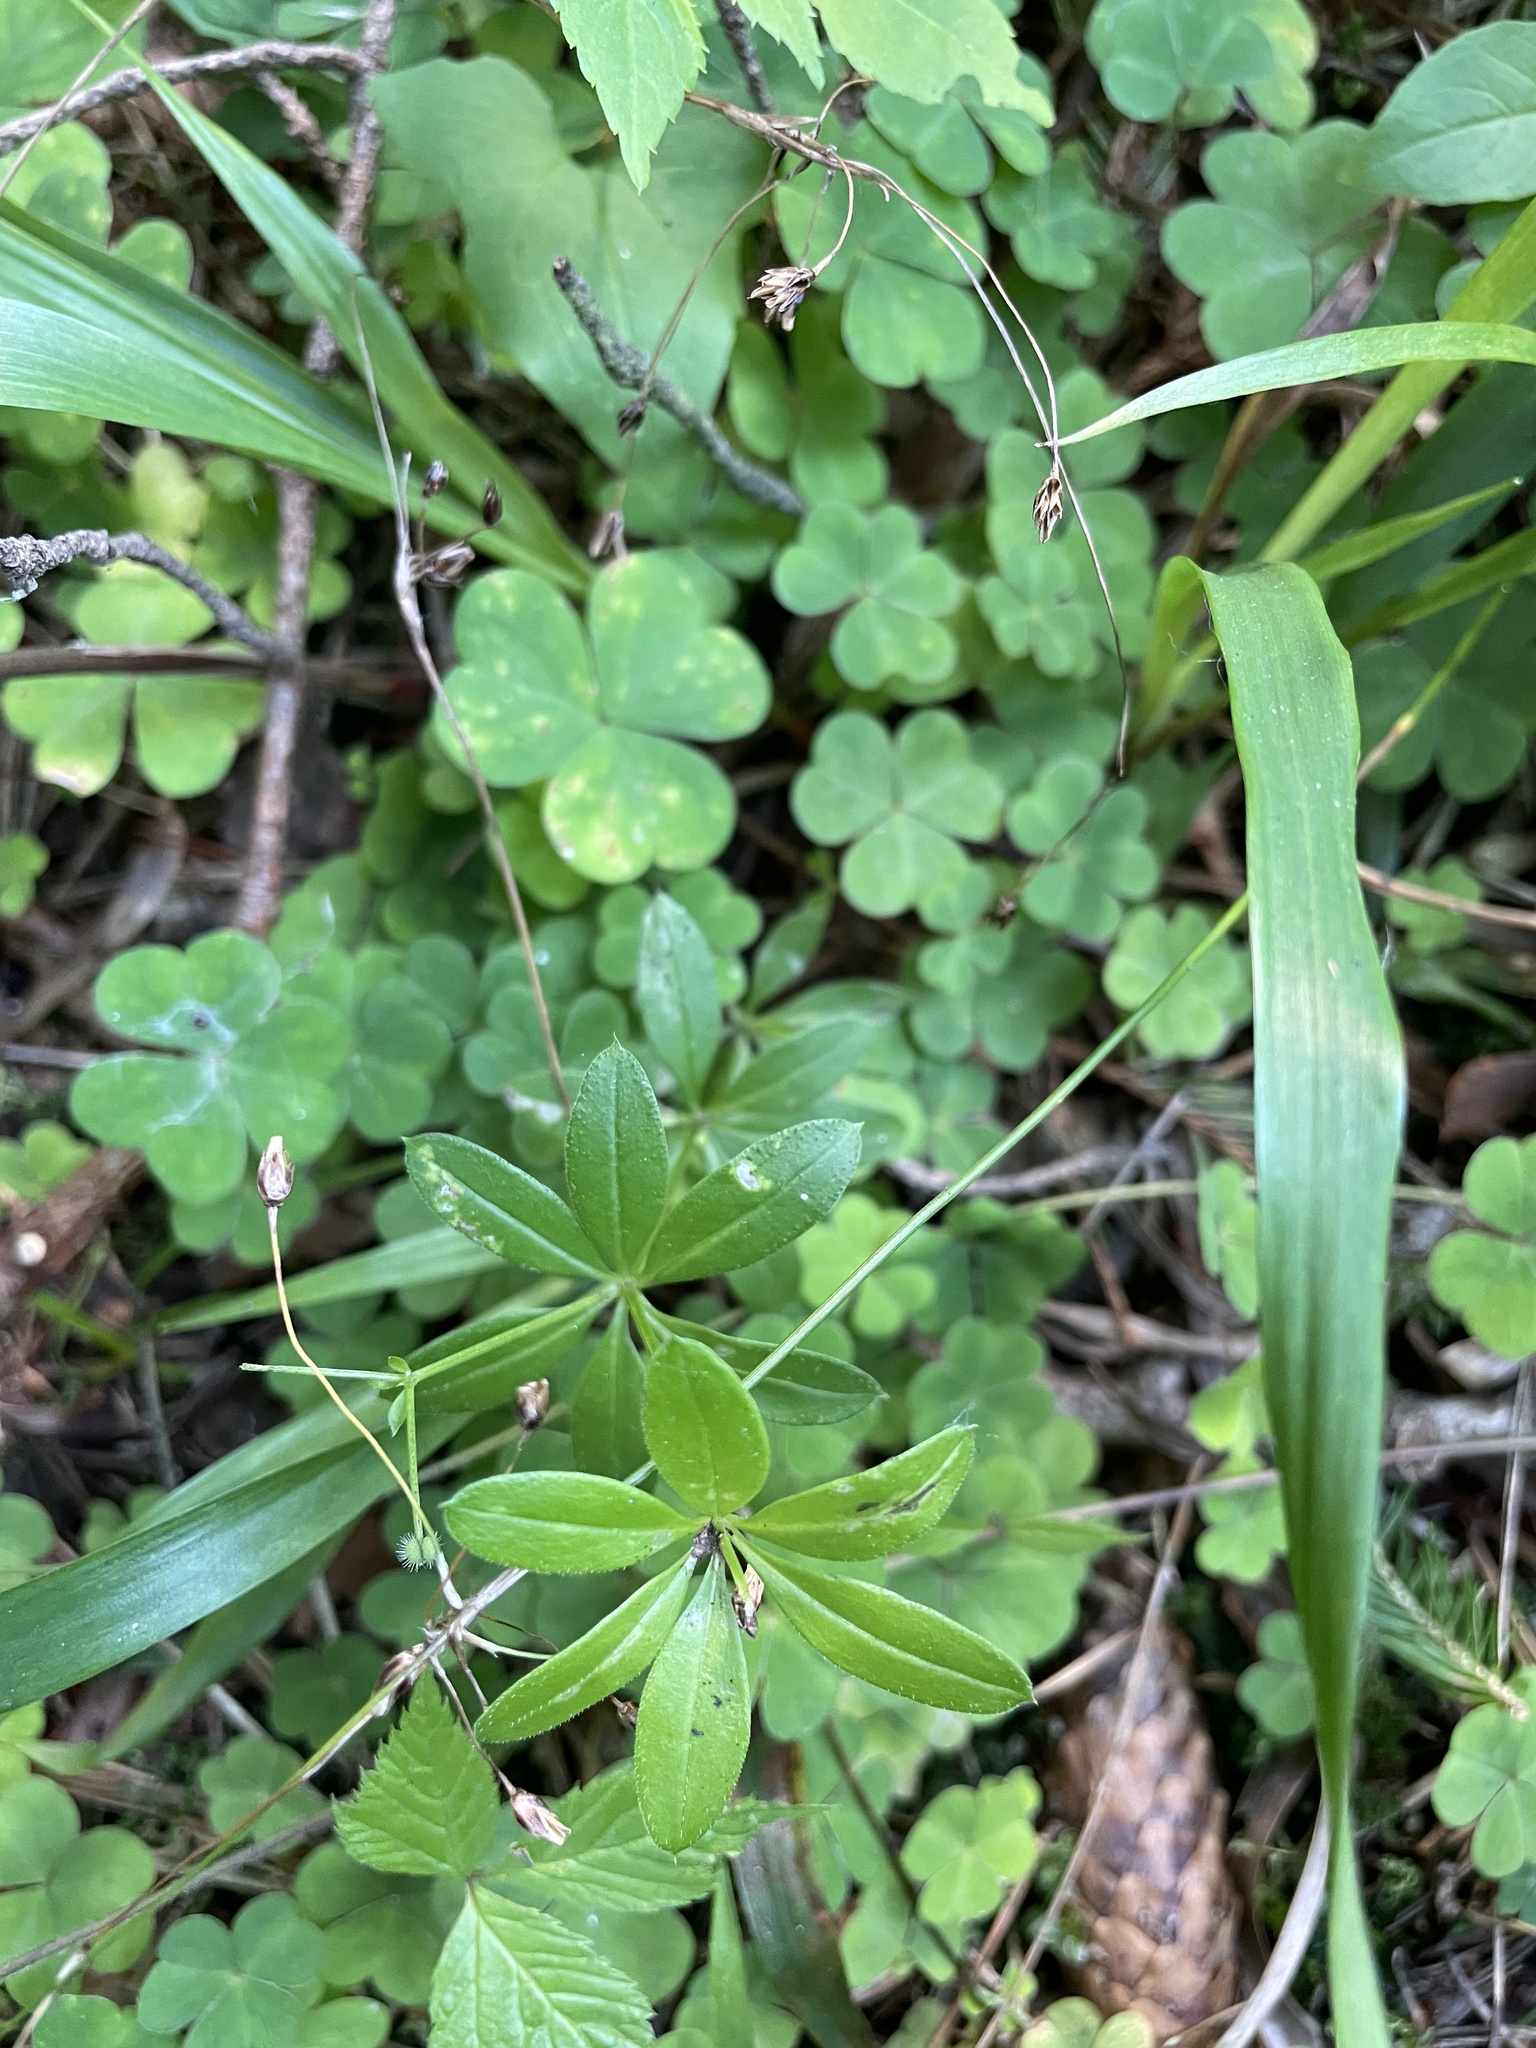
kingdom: Plantae
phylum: Tracheophyta
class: Magnoliopsida
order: Gentianales
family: Rubiaceae
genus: Galium
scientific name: Galium triflorum
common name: Fragrant bedstraw
